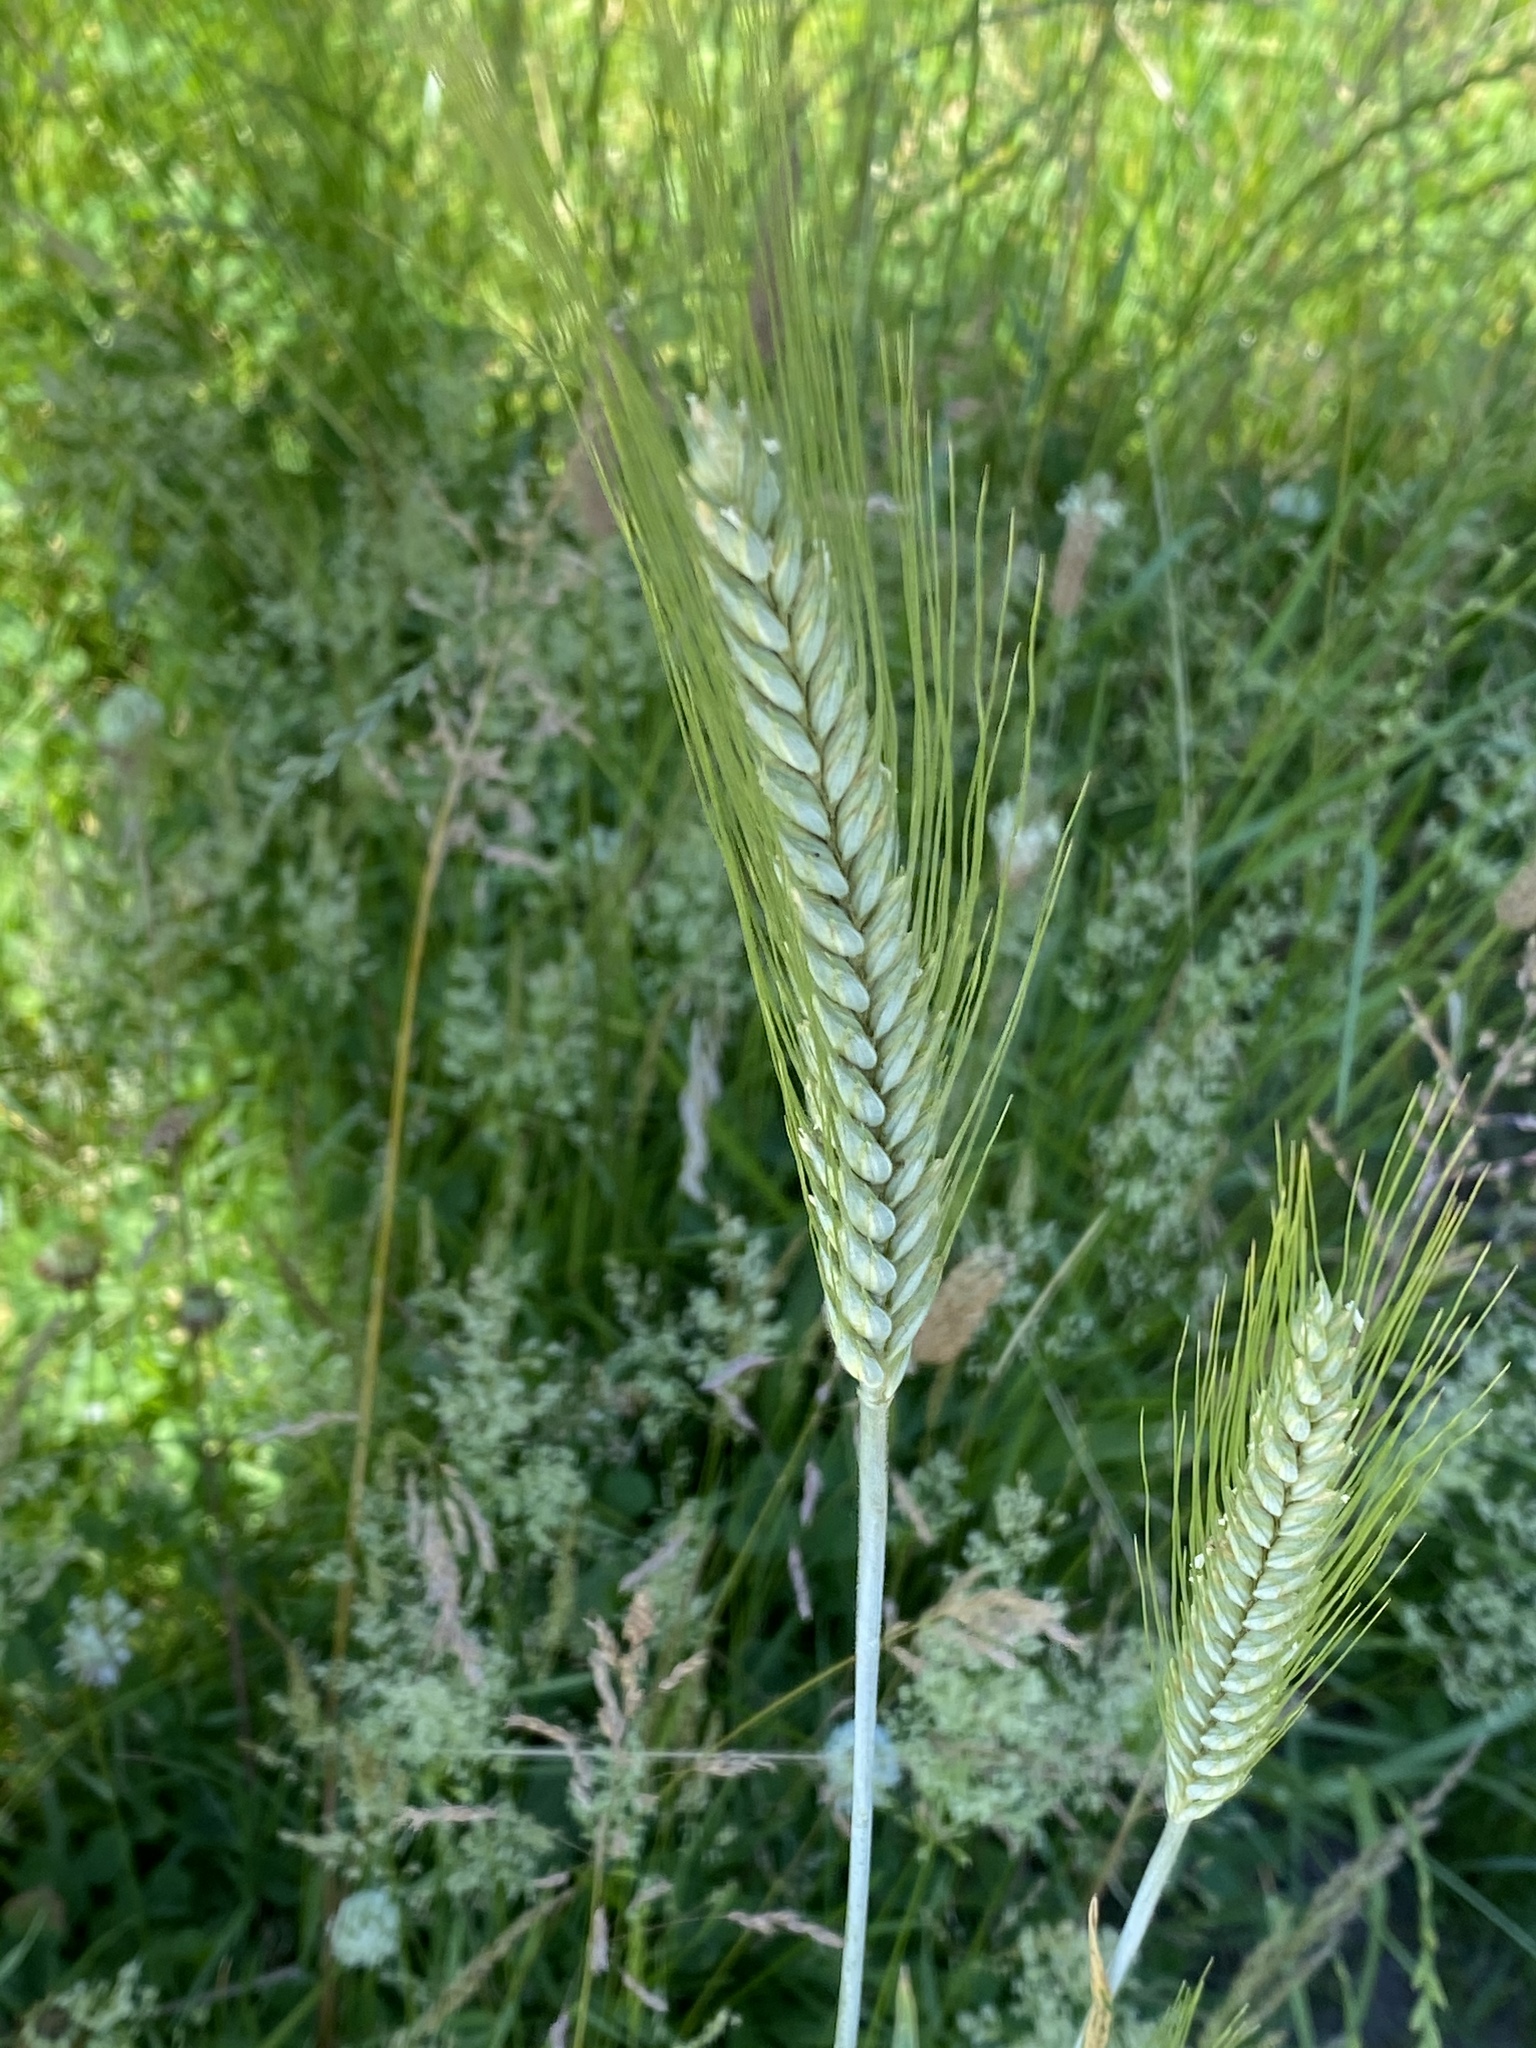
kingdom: Plantae
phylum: Tracheophyta
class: Liliopsida
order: Poales
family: Poaceae
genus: Triticum
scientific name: Triticum aestivum
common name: Common wheat
